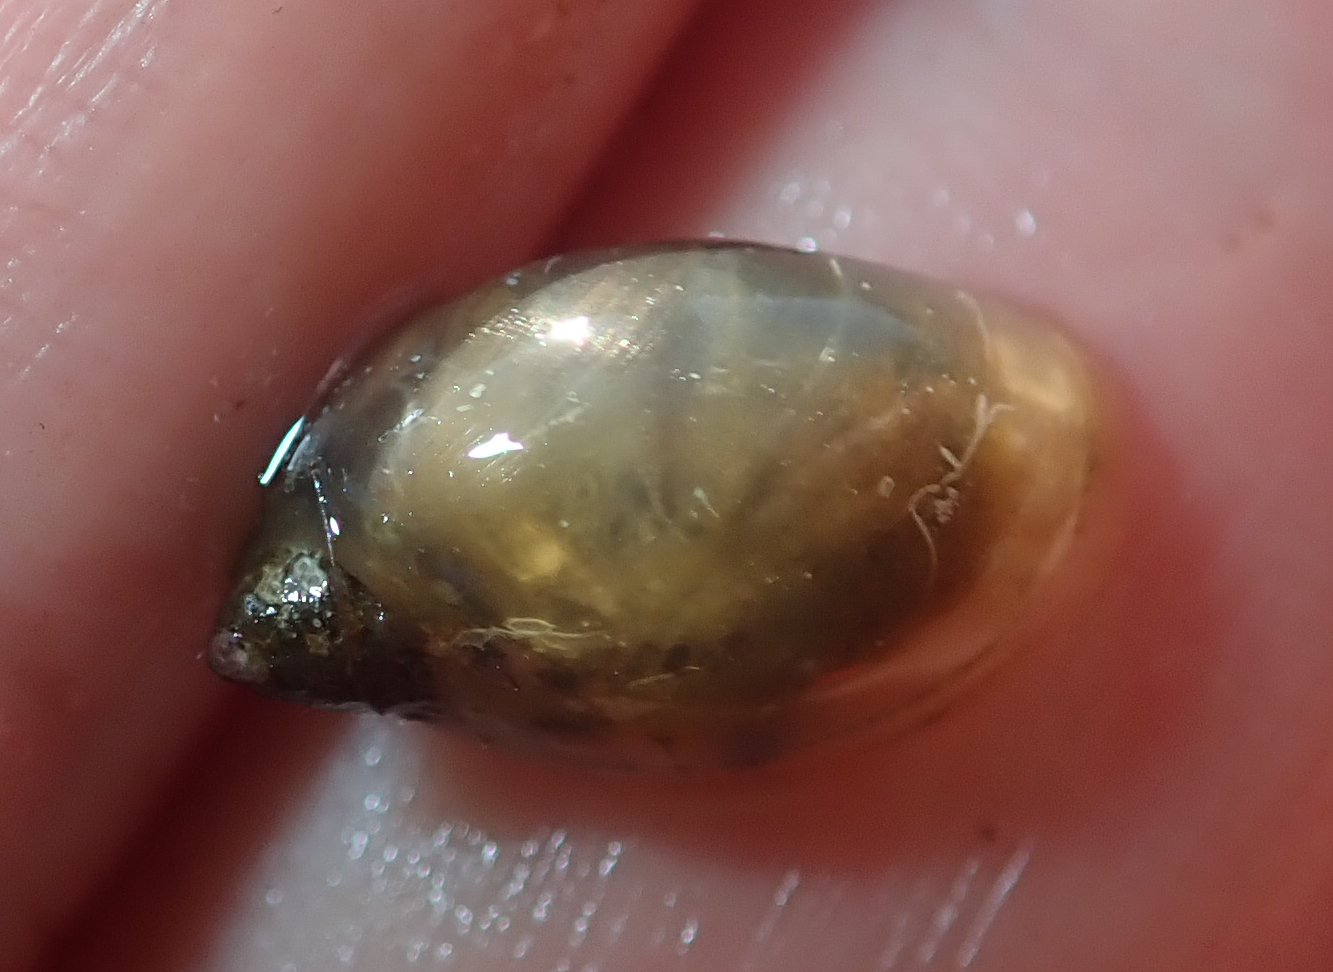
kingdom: Animalia
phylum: Mollusca
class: Gastropoda
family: Lymnaeidae
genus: Radix
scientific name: Radix natalensis
